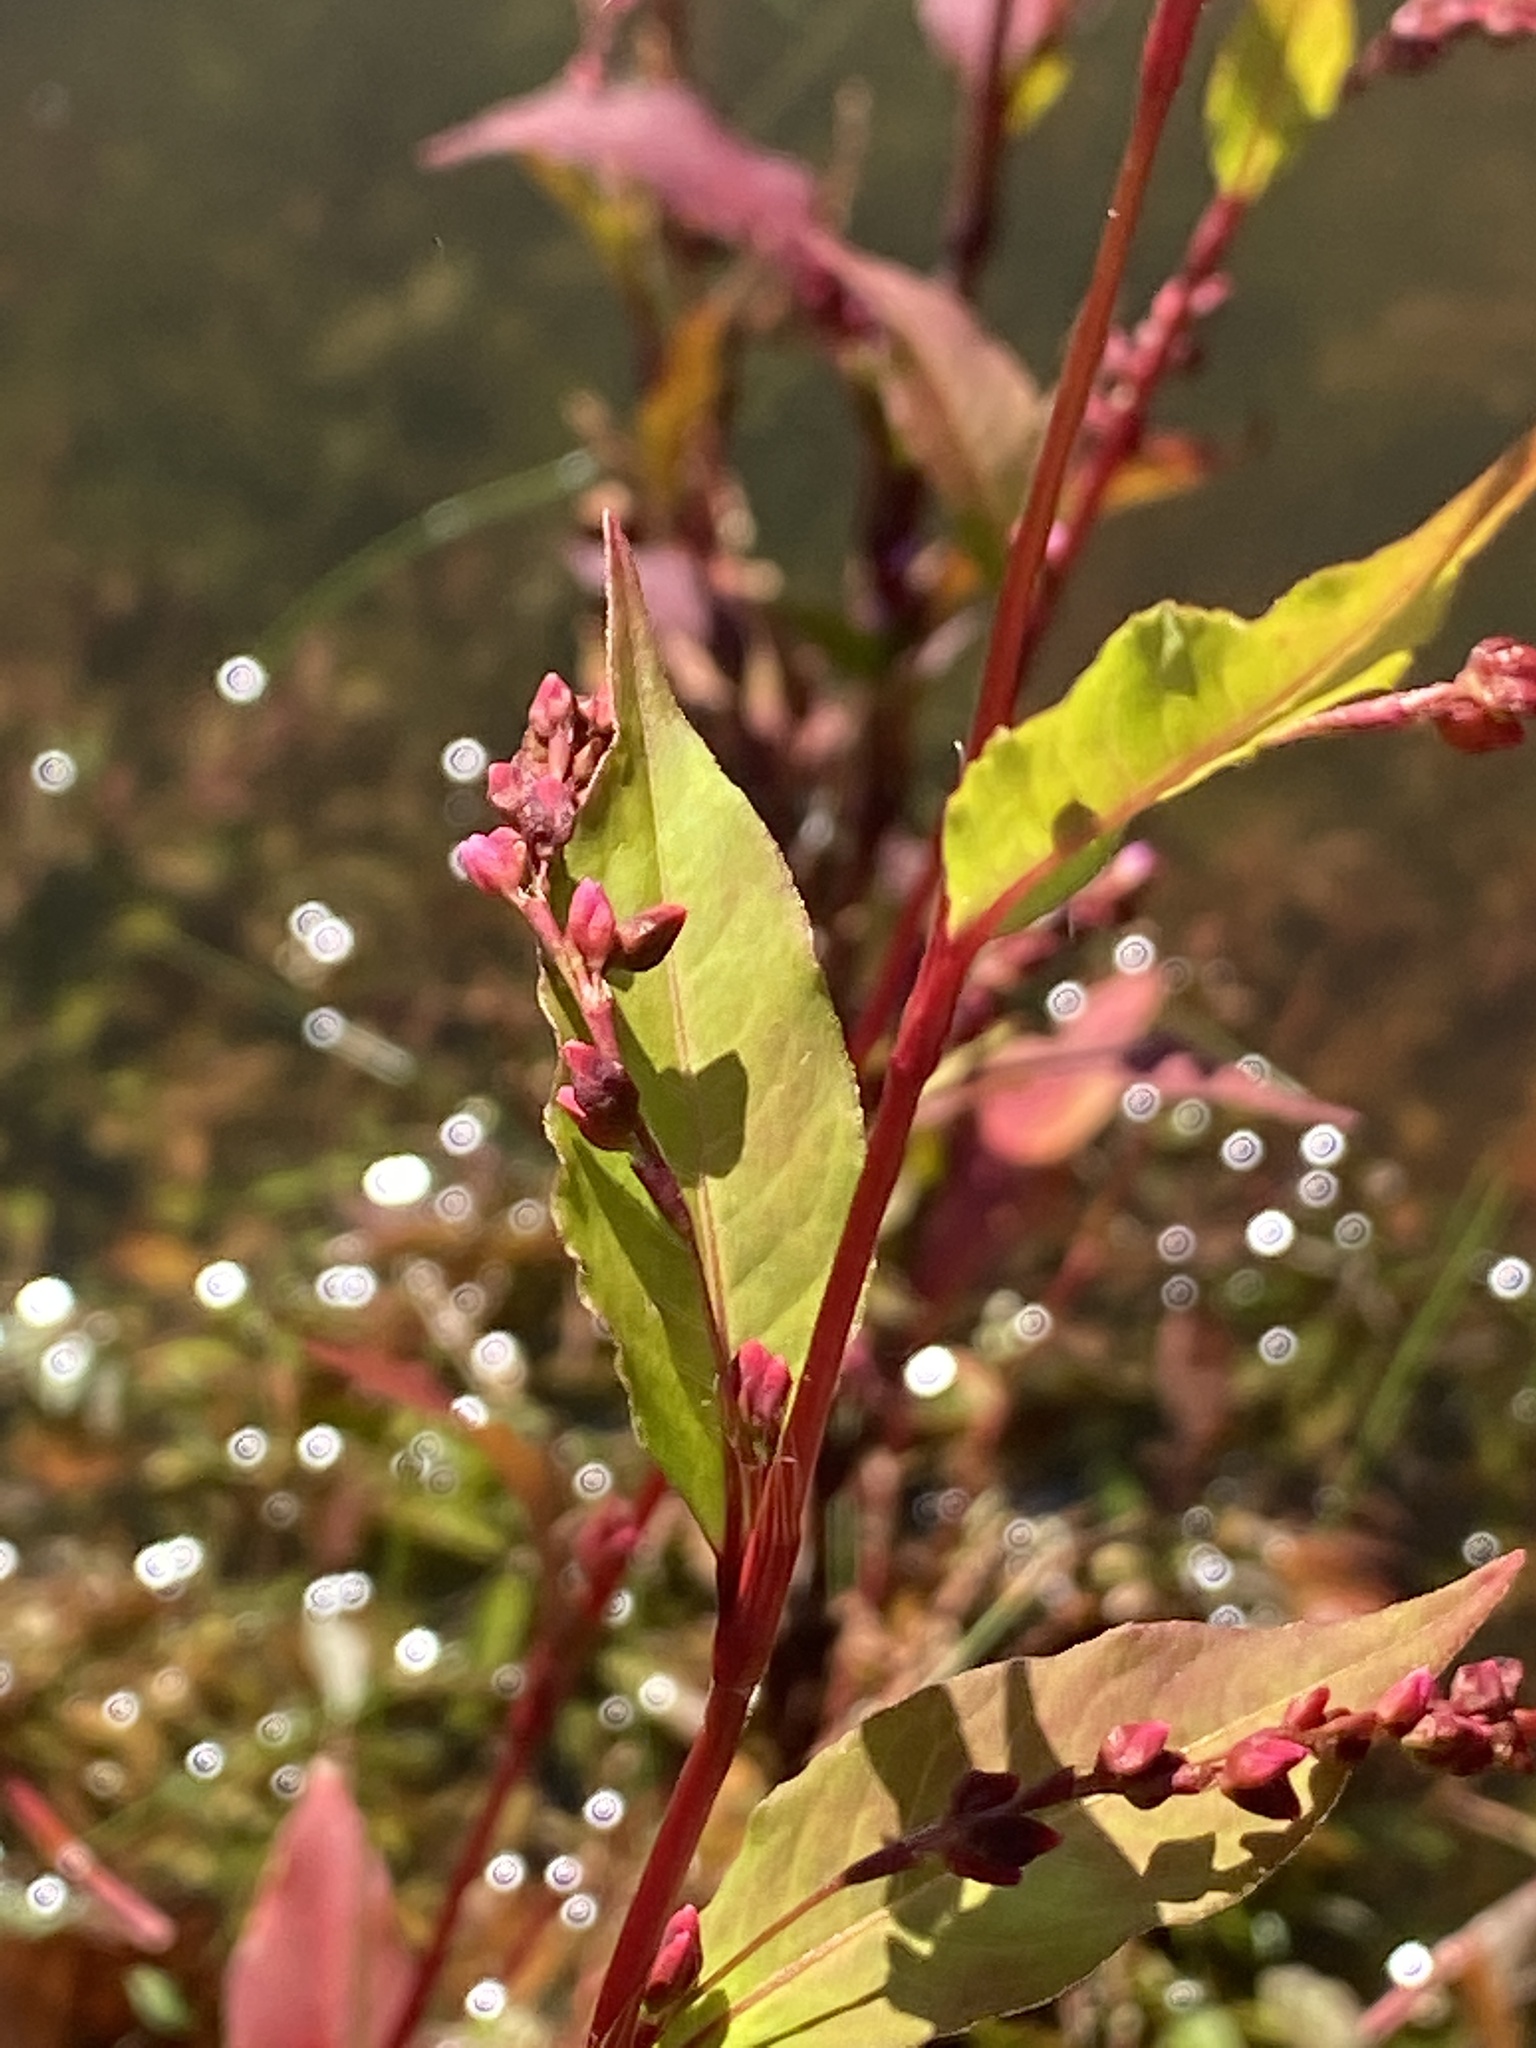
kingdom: Plantae
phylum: Tracheophyta
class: Magnoliopsida
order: Caryophyllales
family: Polygonaceae
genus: Persicaria
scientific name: Persicaria hydropiper
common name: Water-pepper
